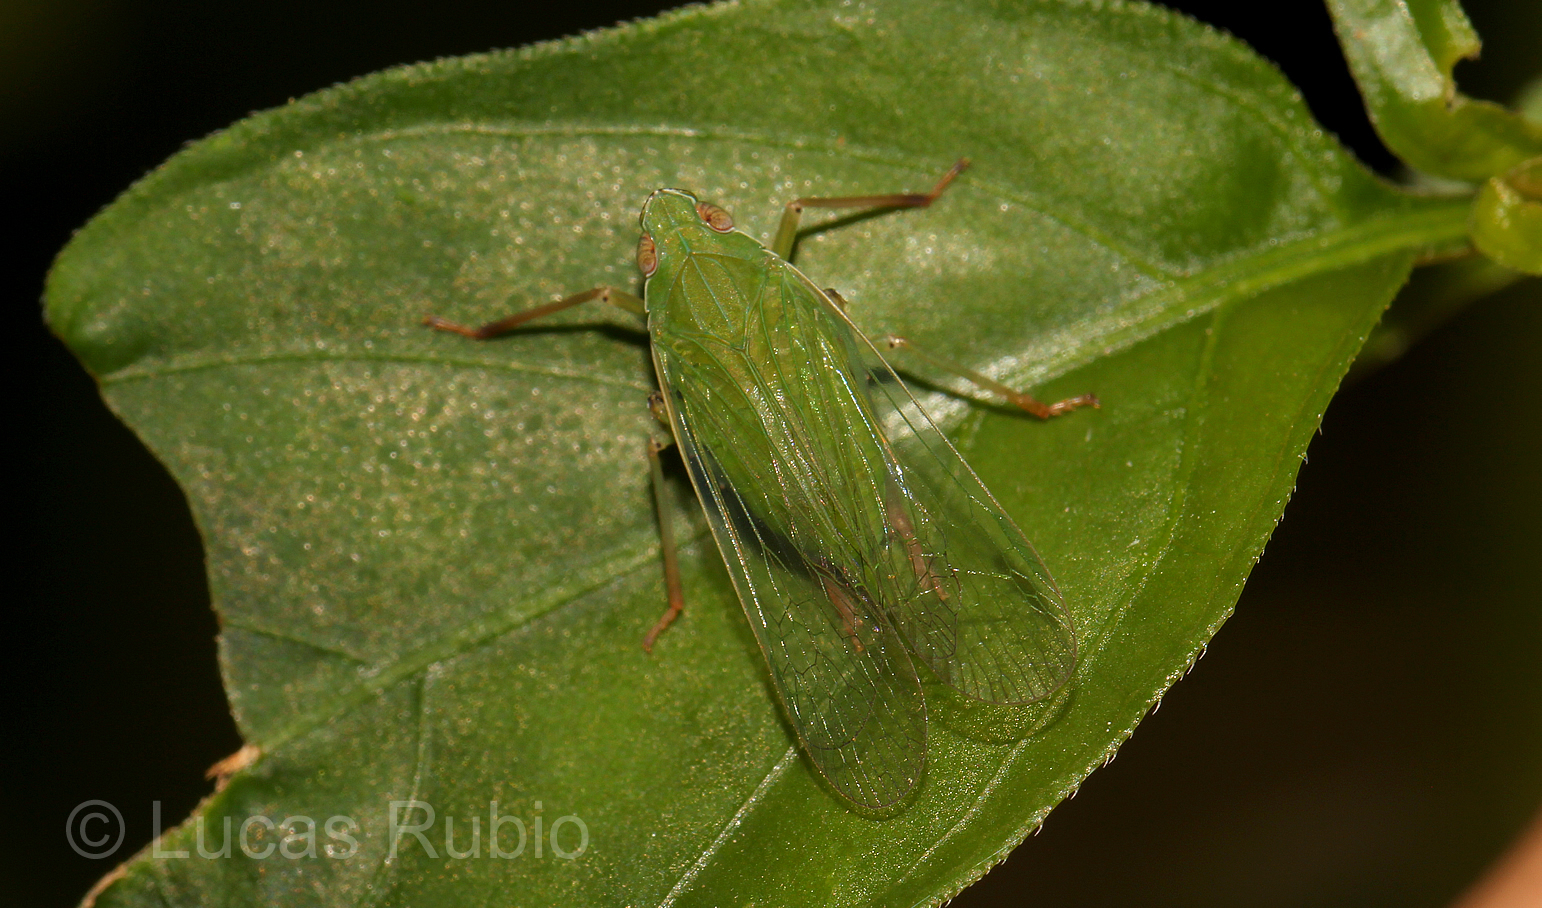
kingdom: Animalia
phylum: Arthropoda
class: Insecta
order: Hemiptera
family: Dictyopharidae
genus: Coronersia
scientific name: Coronersia sertata
